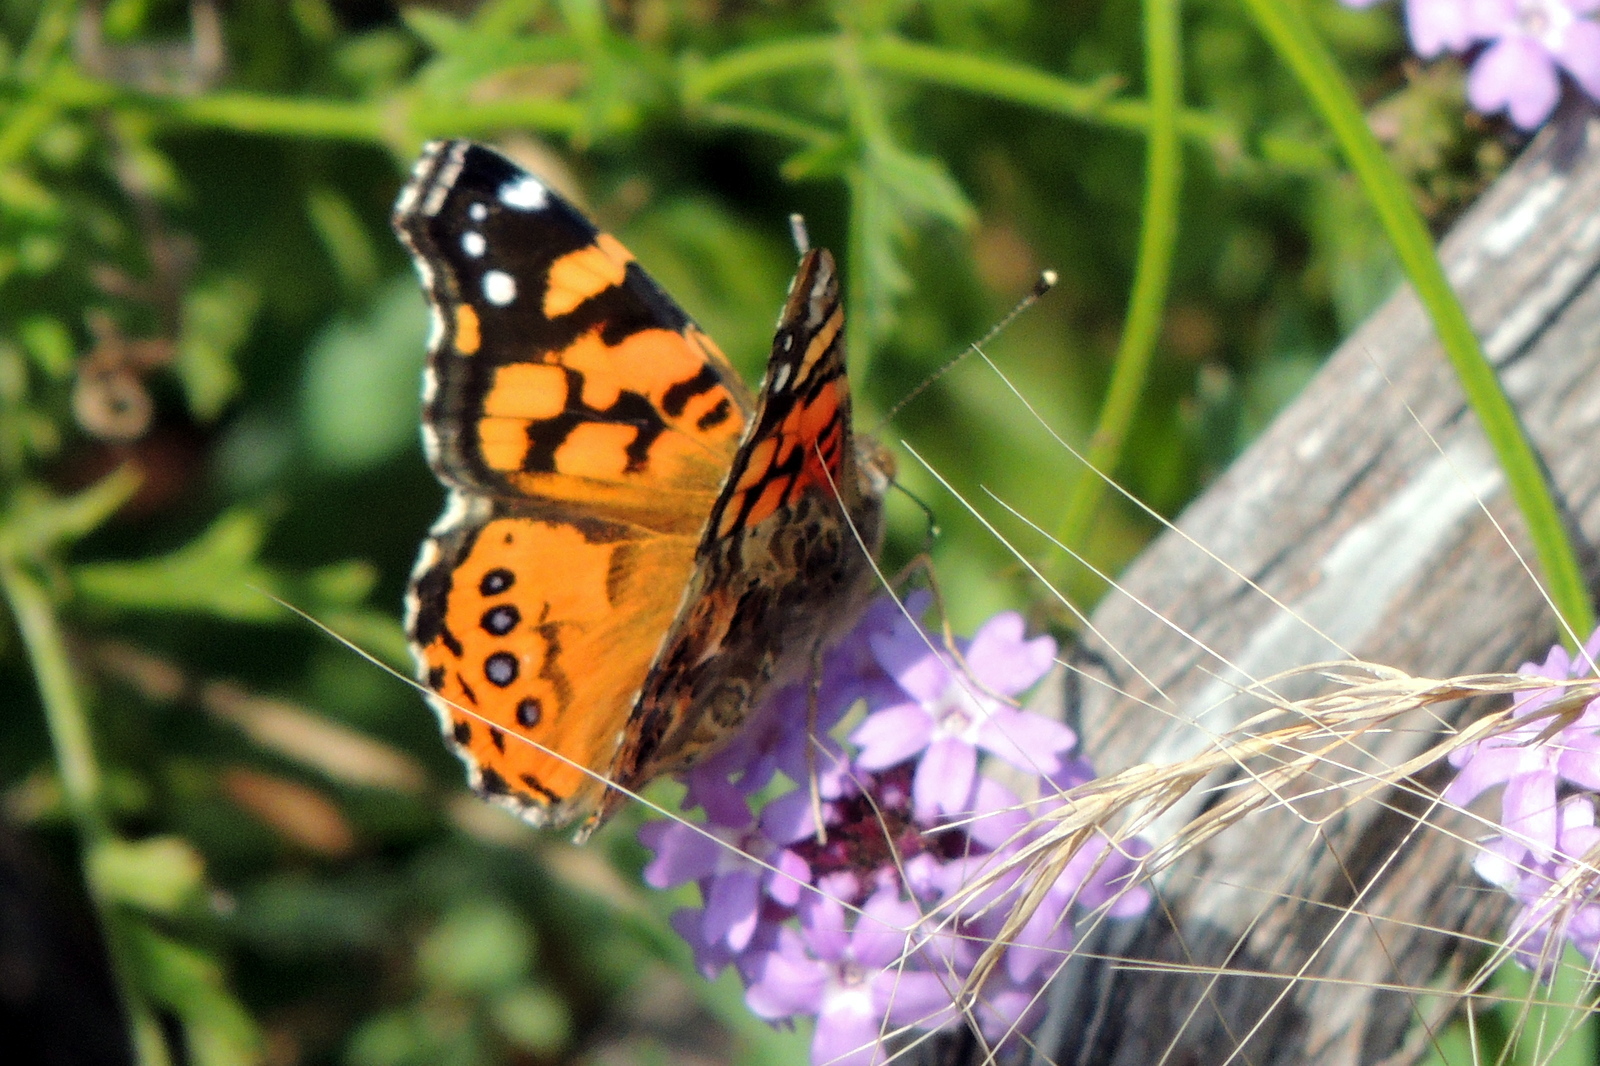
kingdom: Animalia
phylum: Arthropoda
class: Insecta
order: Lepidoptera
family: Nymphalidae
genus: Vanessa
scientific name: Vanessa annabella
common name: West coast lady
